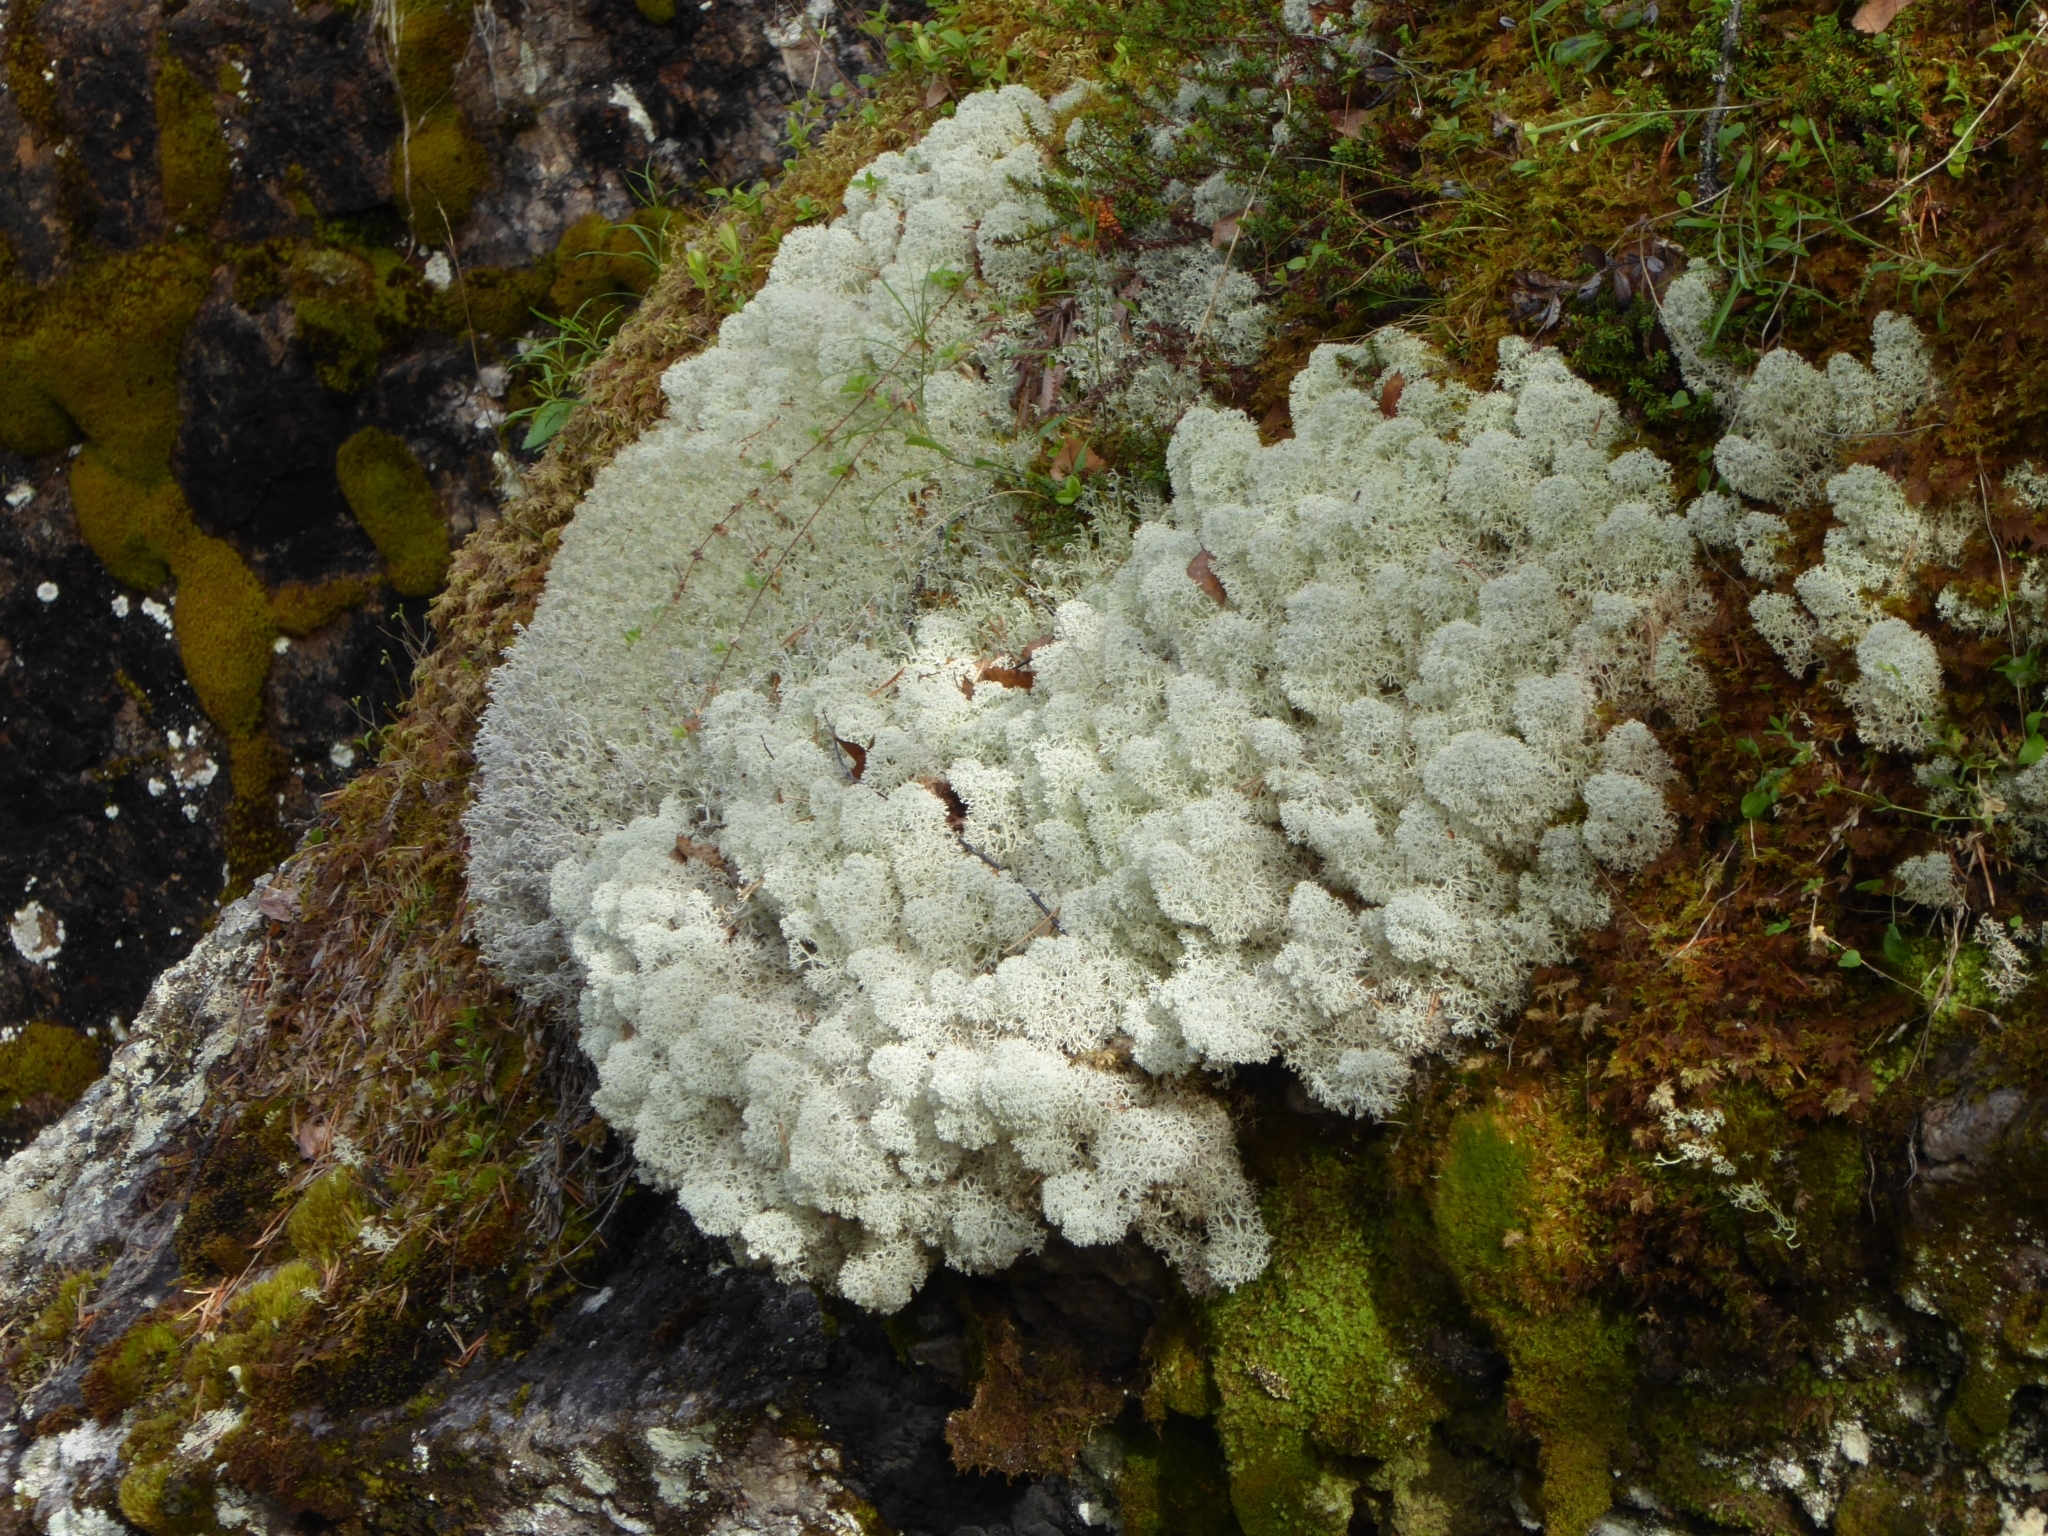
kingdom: Fungi
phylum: Ascomycota
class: Lecanoromycetes
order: Lecanorales
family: Cladoniaceae
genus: Cladonia
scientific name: Cladonia stellaris
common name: Star-tipped reindeer lichen
